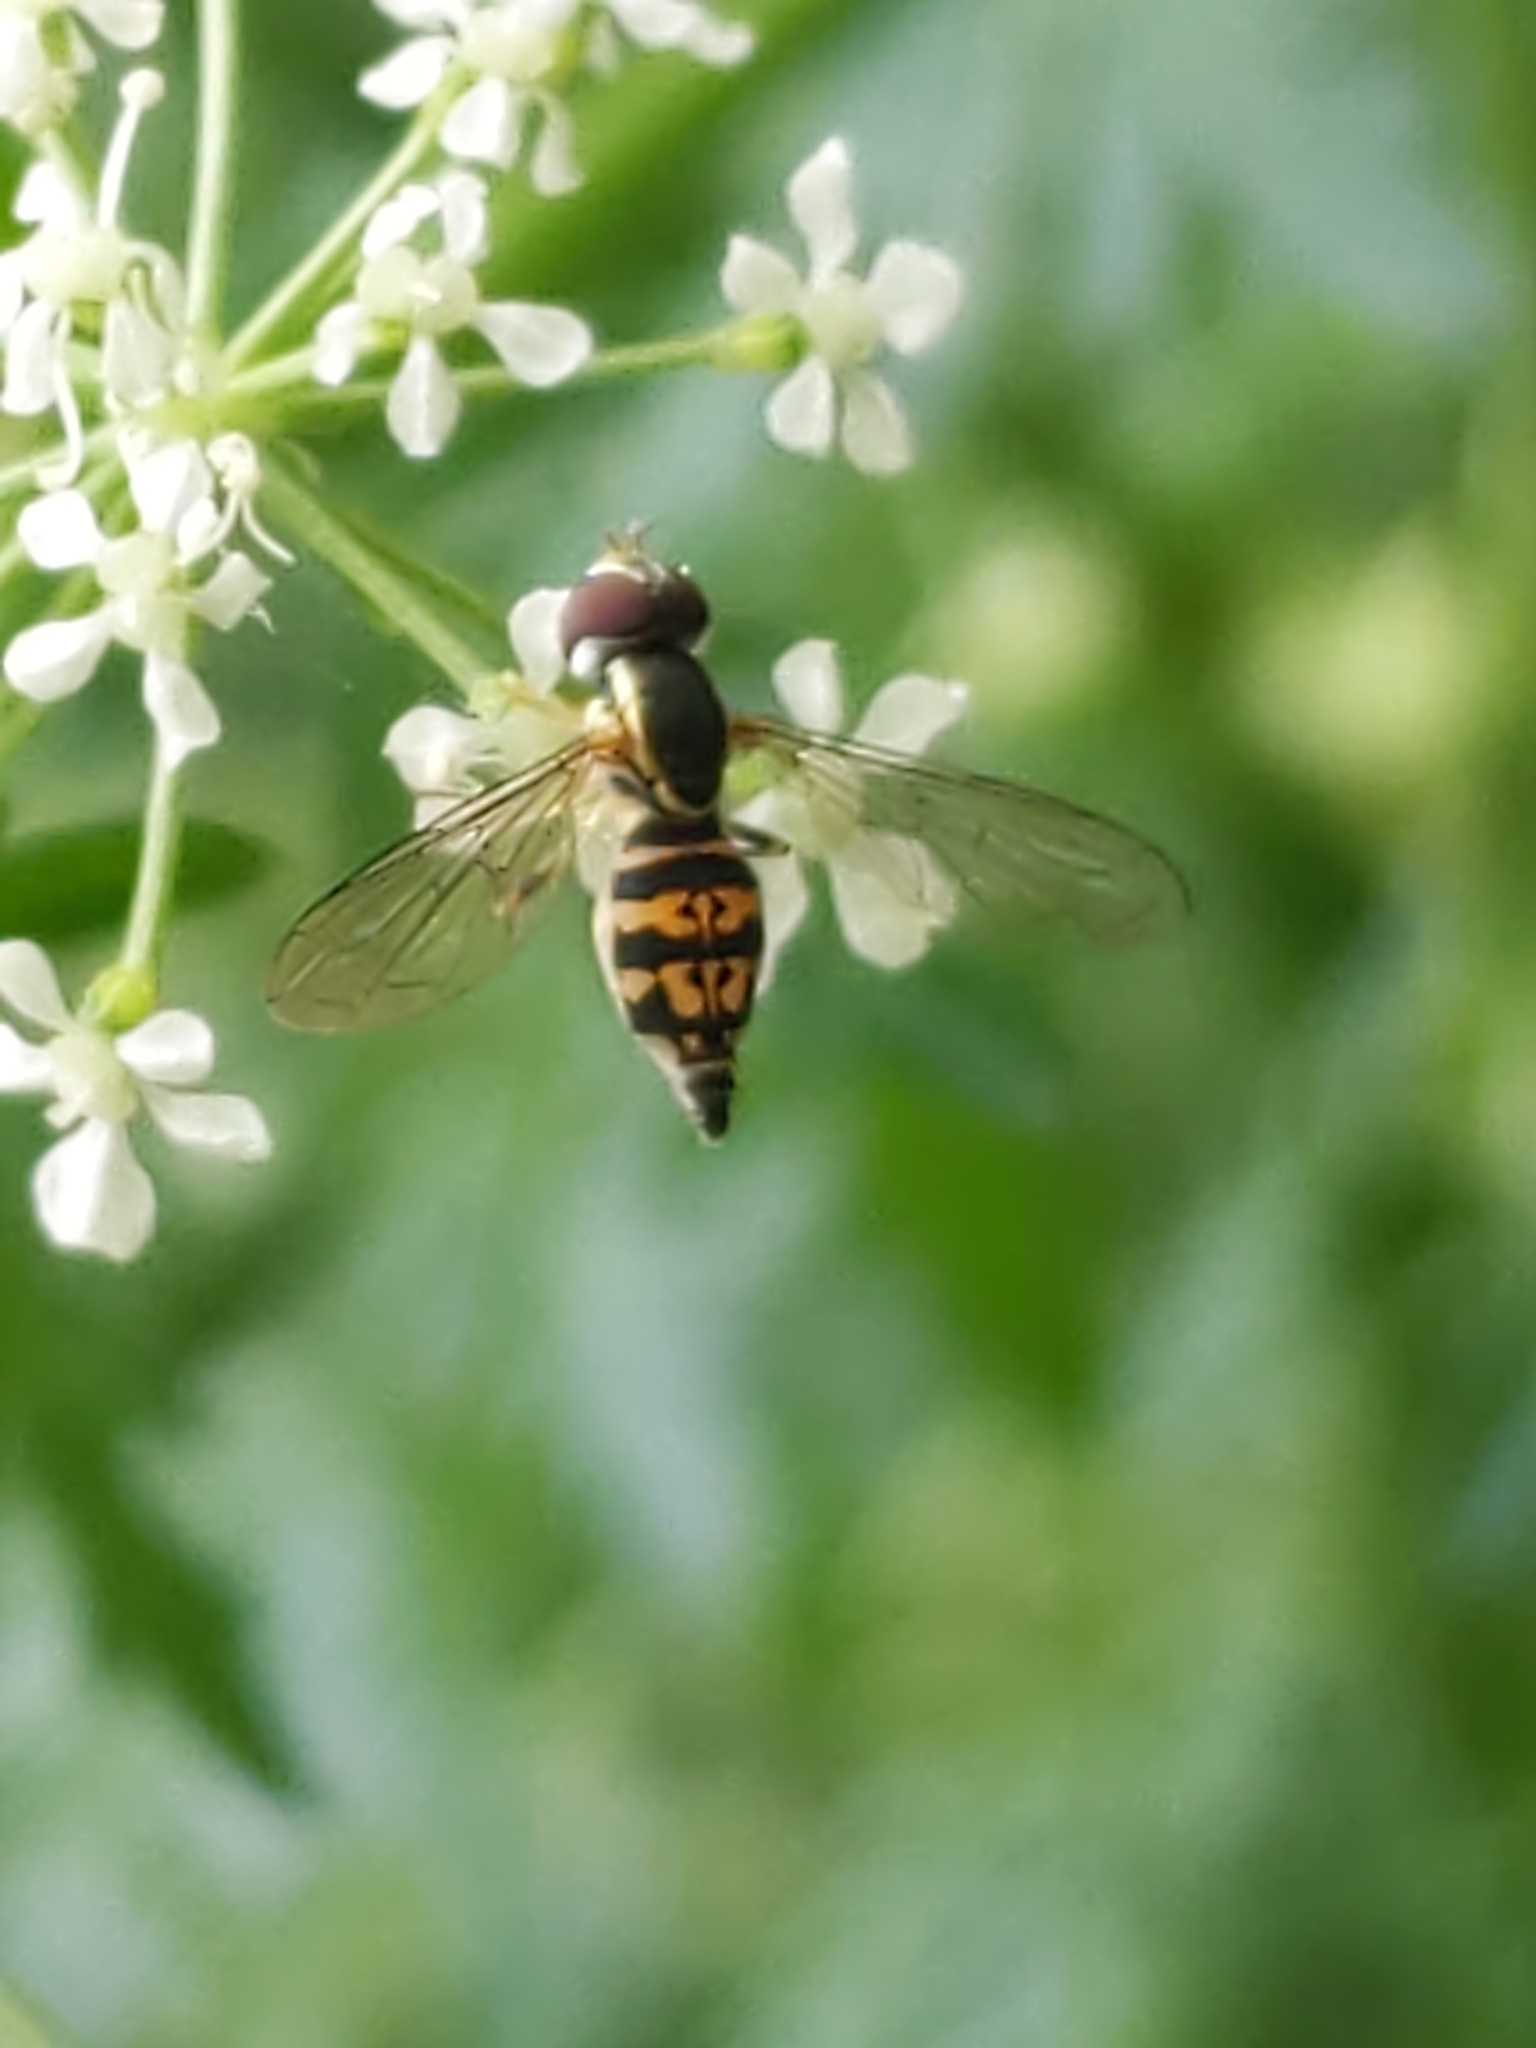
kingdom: Animalia
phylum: Arthropoda
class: Insecta
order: Diptera
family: Syrphidae
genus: Toxomerus
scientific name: Toxomerus geminatus
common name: Eastern calligrapher
